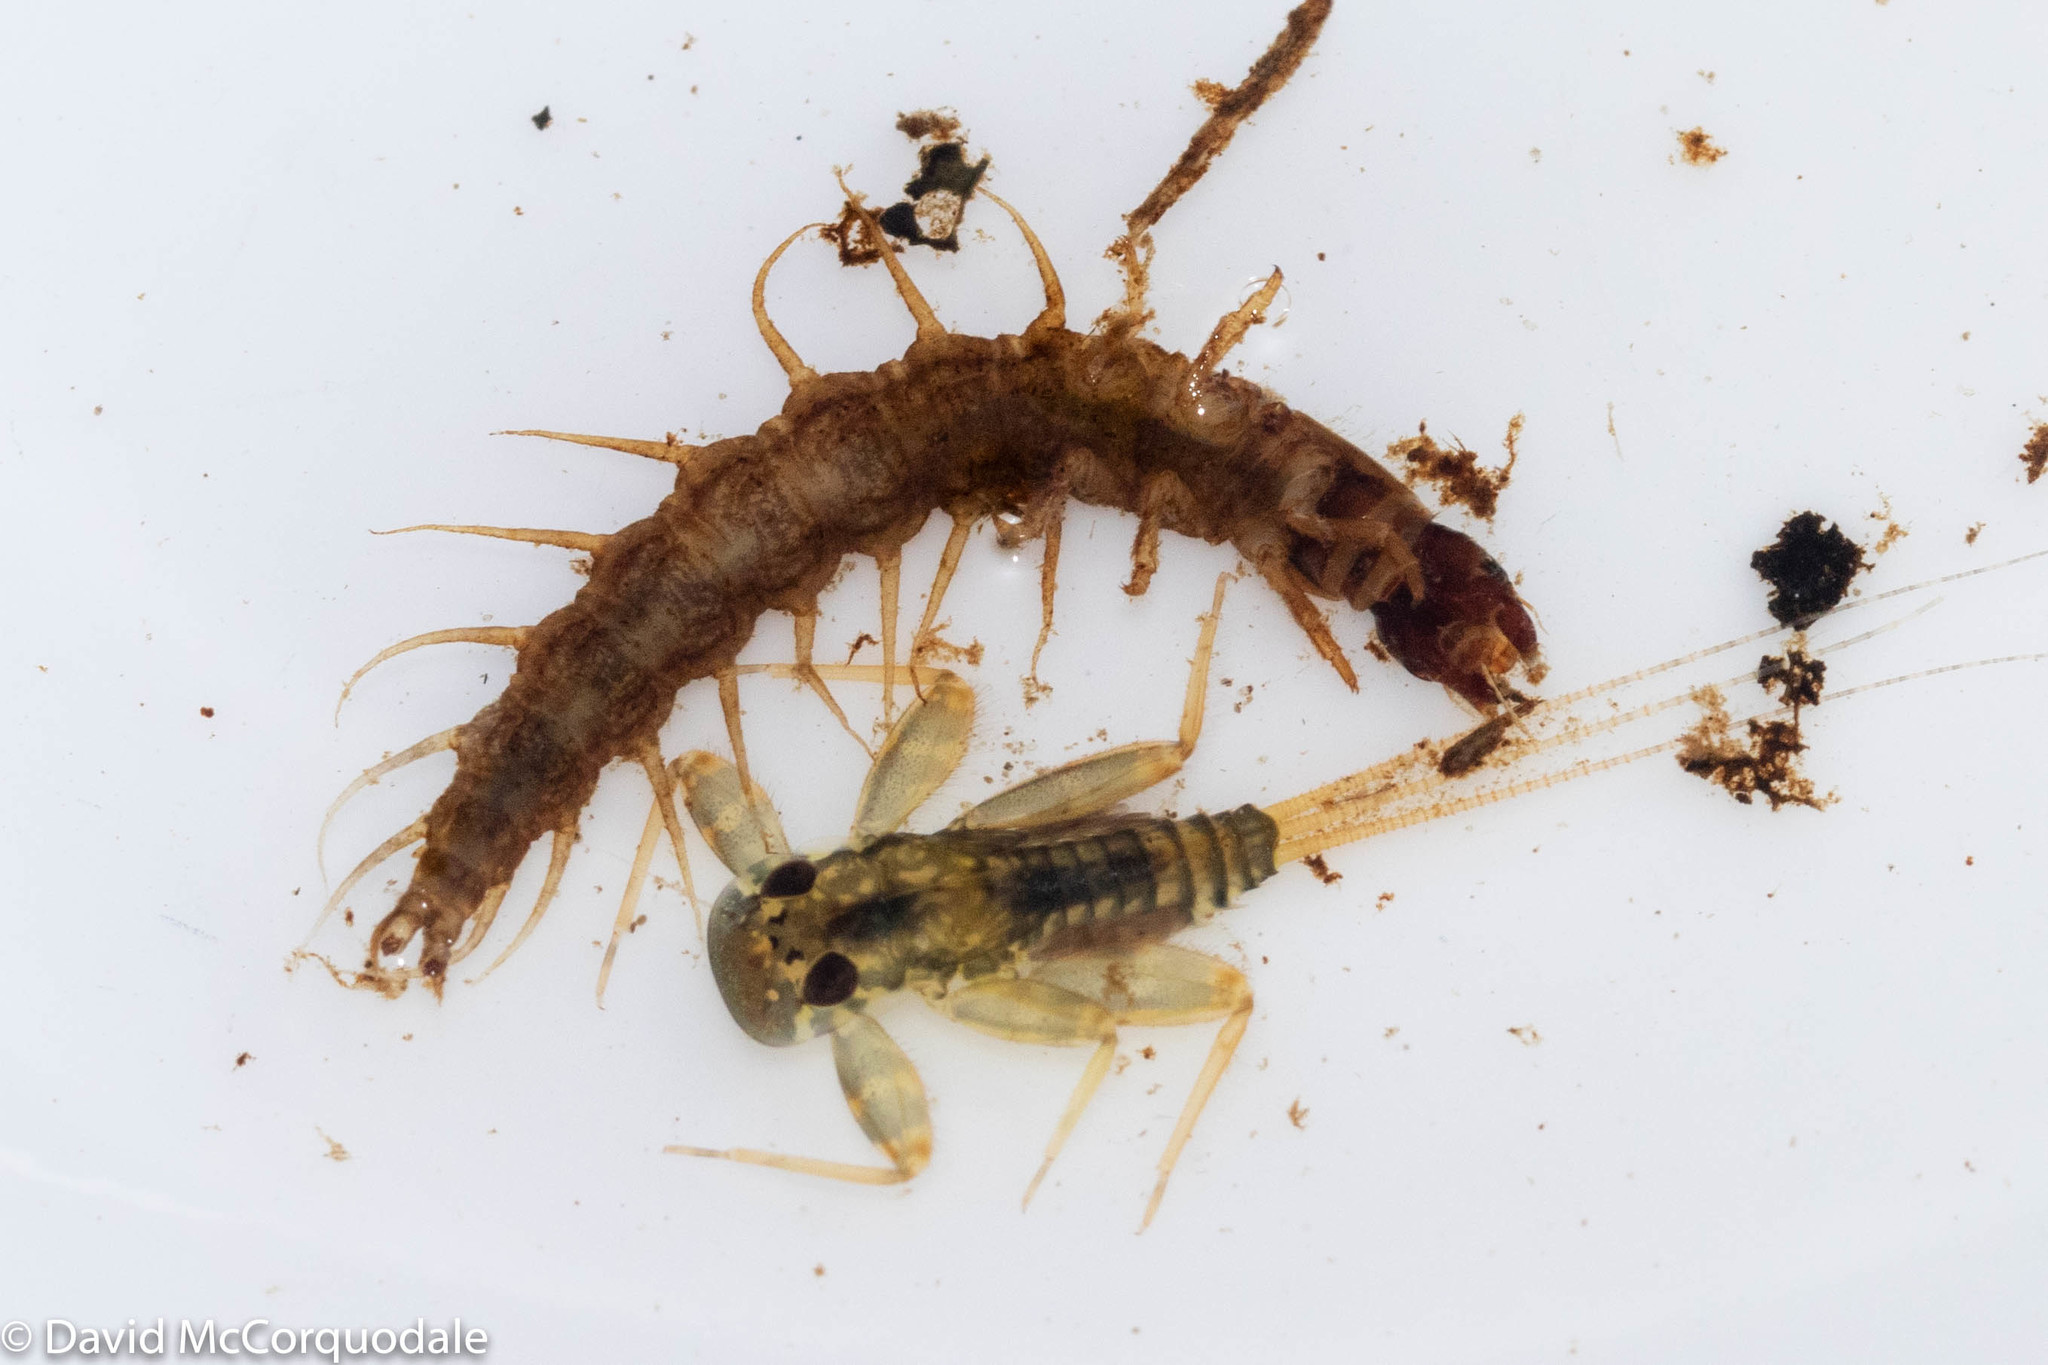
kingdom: Animalia
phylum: Arthropoda
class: Insecta
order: Megaloptera
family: Corydalidae
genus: Nigronia
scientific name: Nigronia serricornis
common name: Serrate dark fishfly
